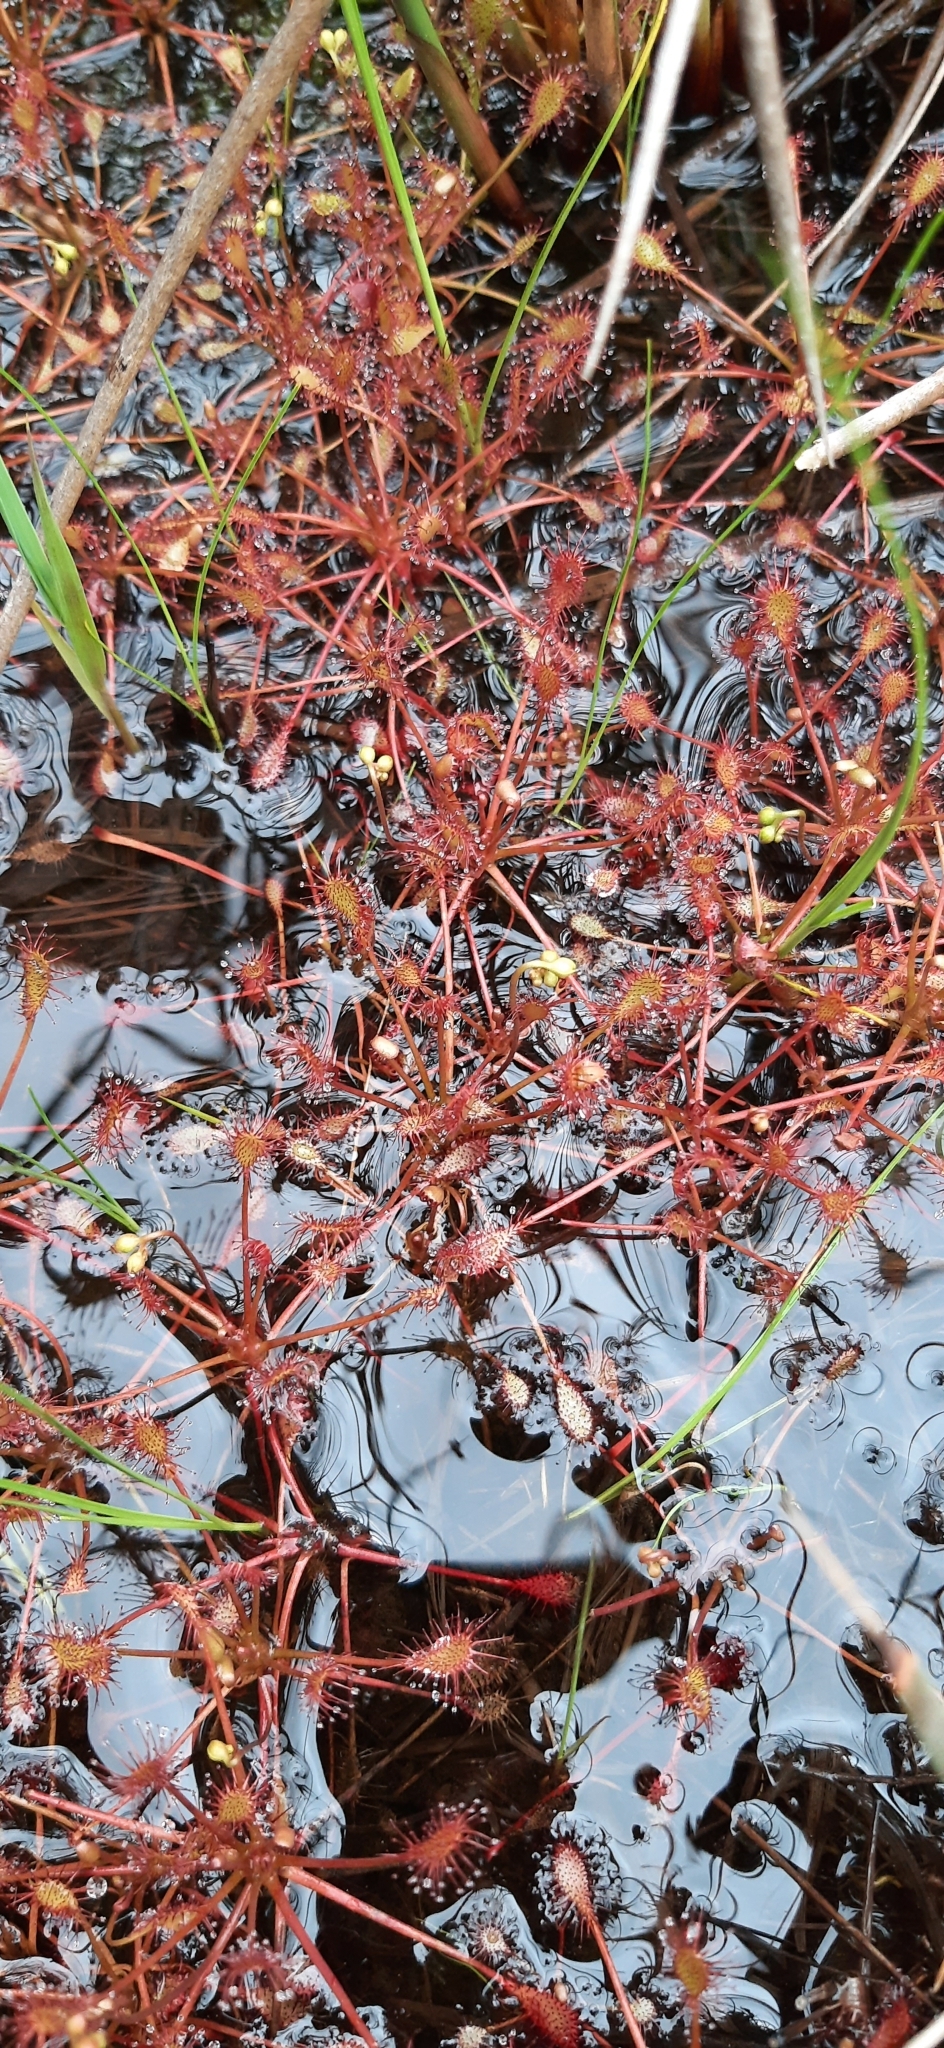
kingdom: Plantae
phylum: Tracheophyta
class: Magnoliopsida
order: Caryophyllales
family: Droseraceae
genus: Drosera
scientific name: Drosera intermedia
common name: Oblong-leaved sundew
